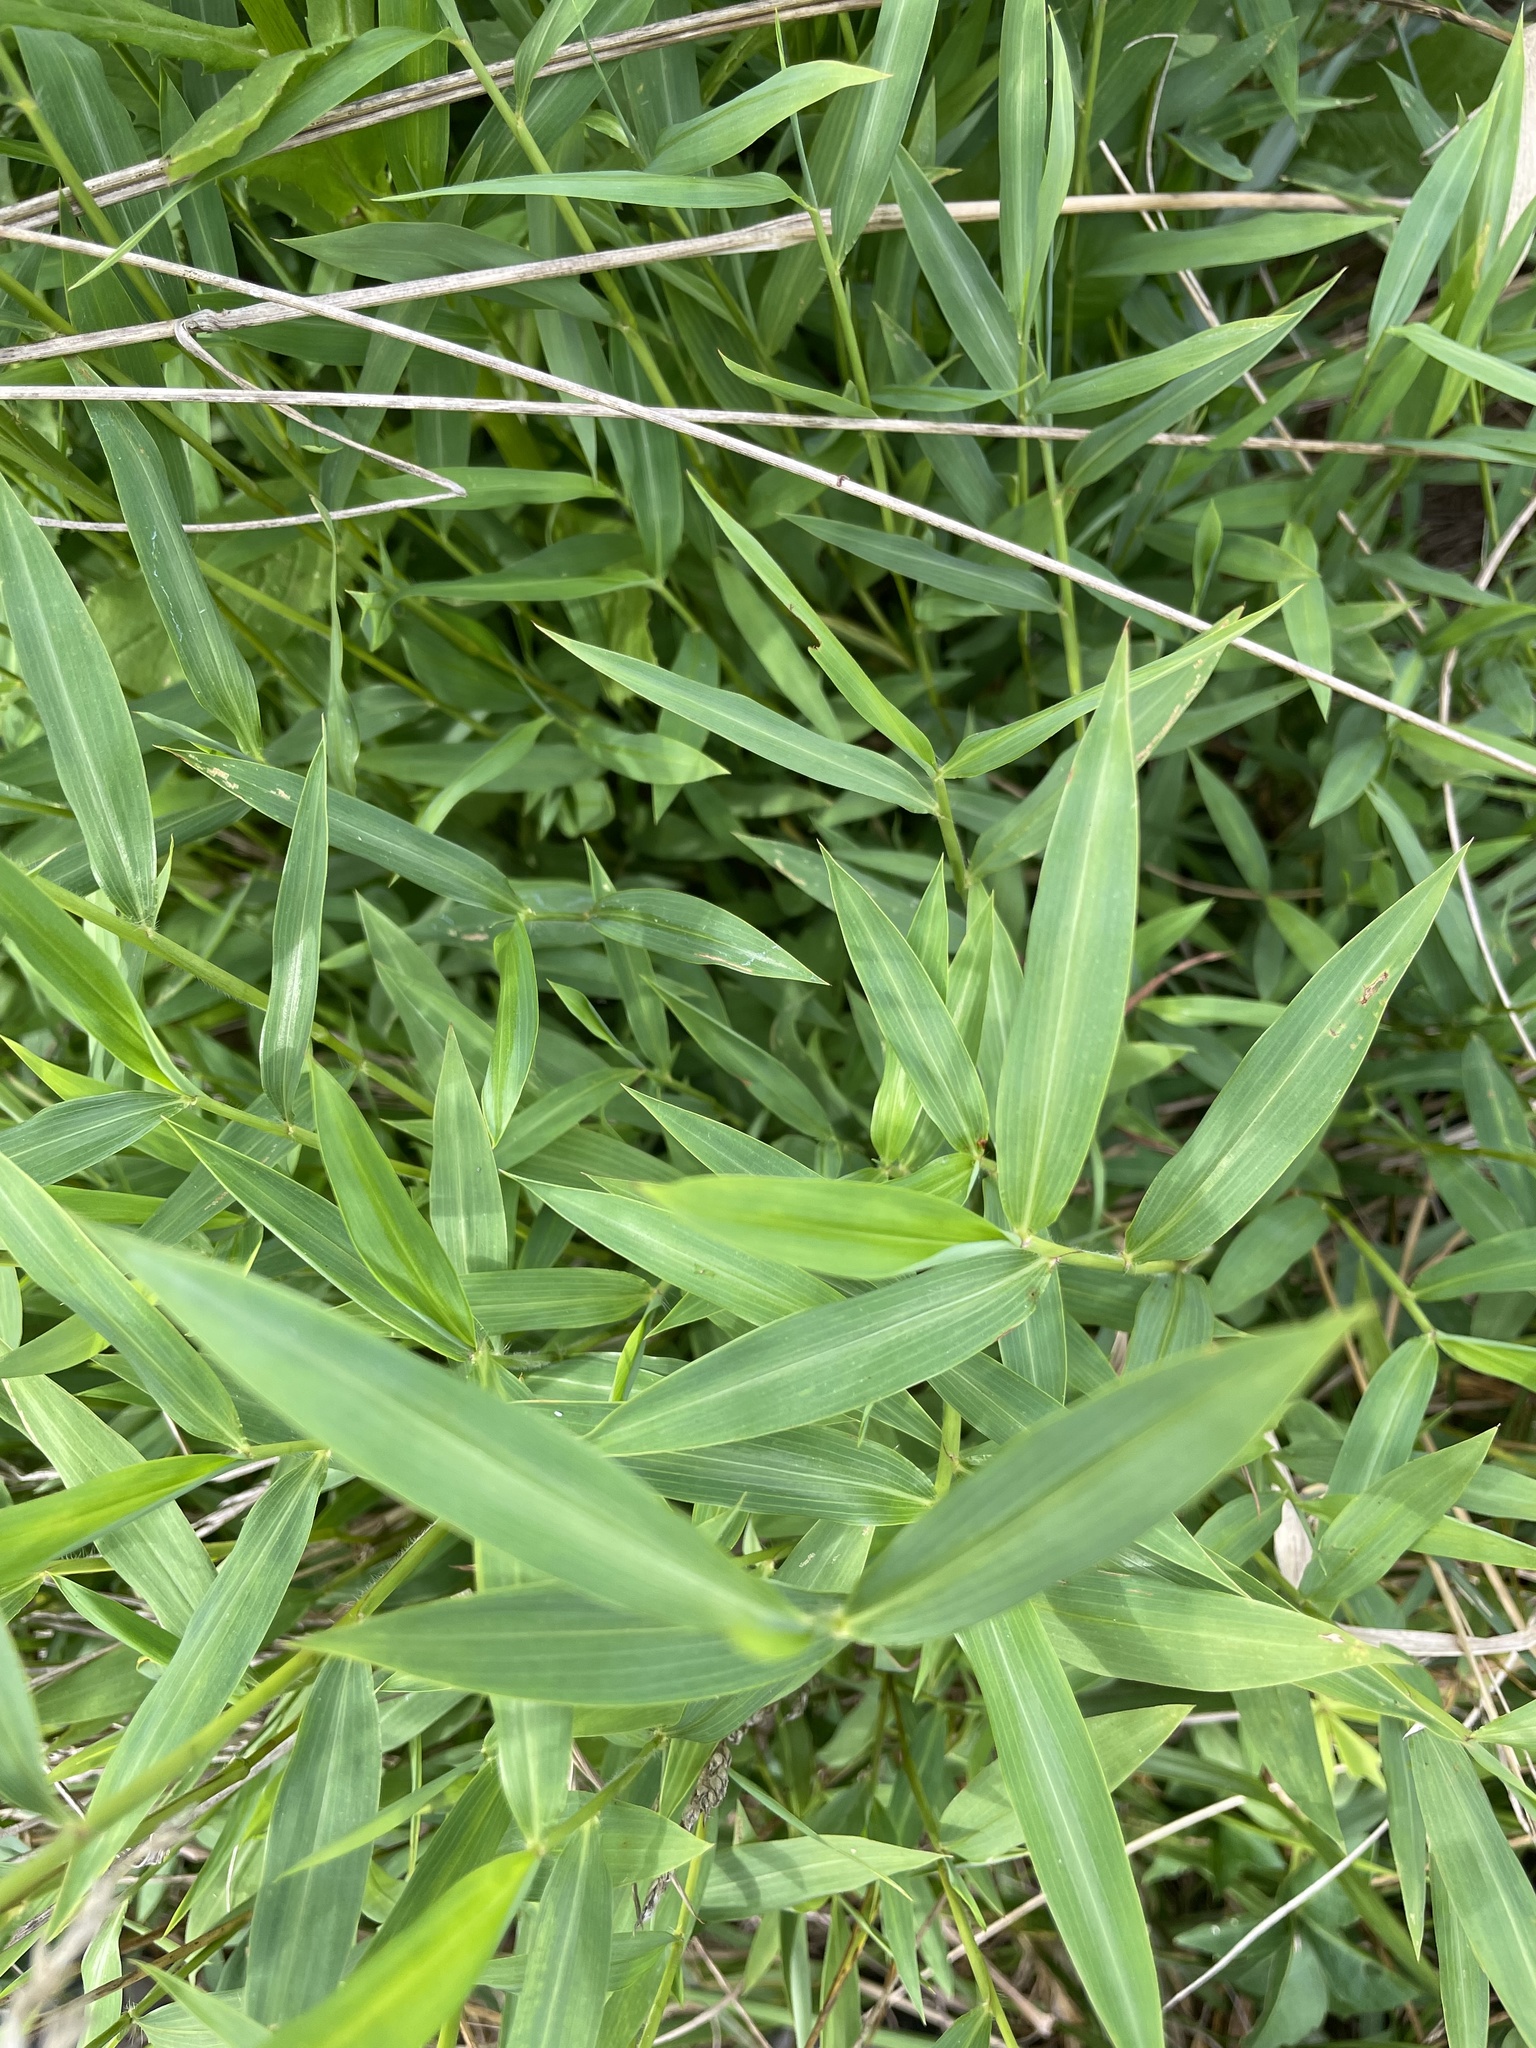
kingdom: Plantae
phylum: Tracheophyta
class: Liliopsida
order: Poales
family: Poaceae
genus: Microstegium
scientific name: Microstegium vimineum
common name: Japanese stiltgrass
